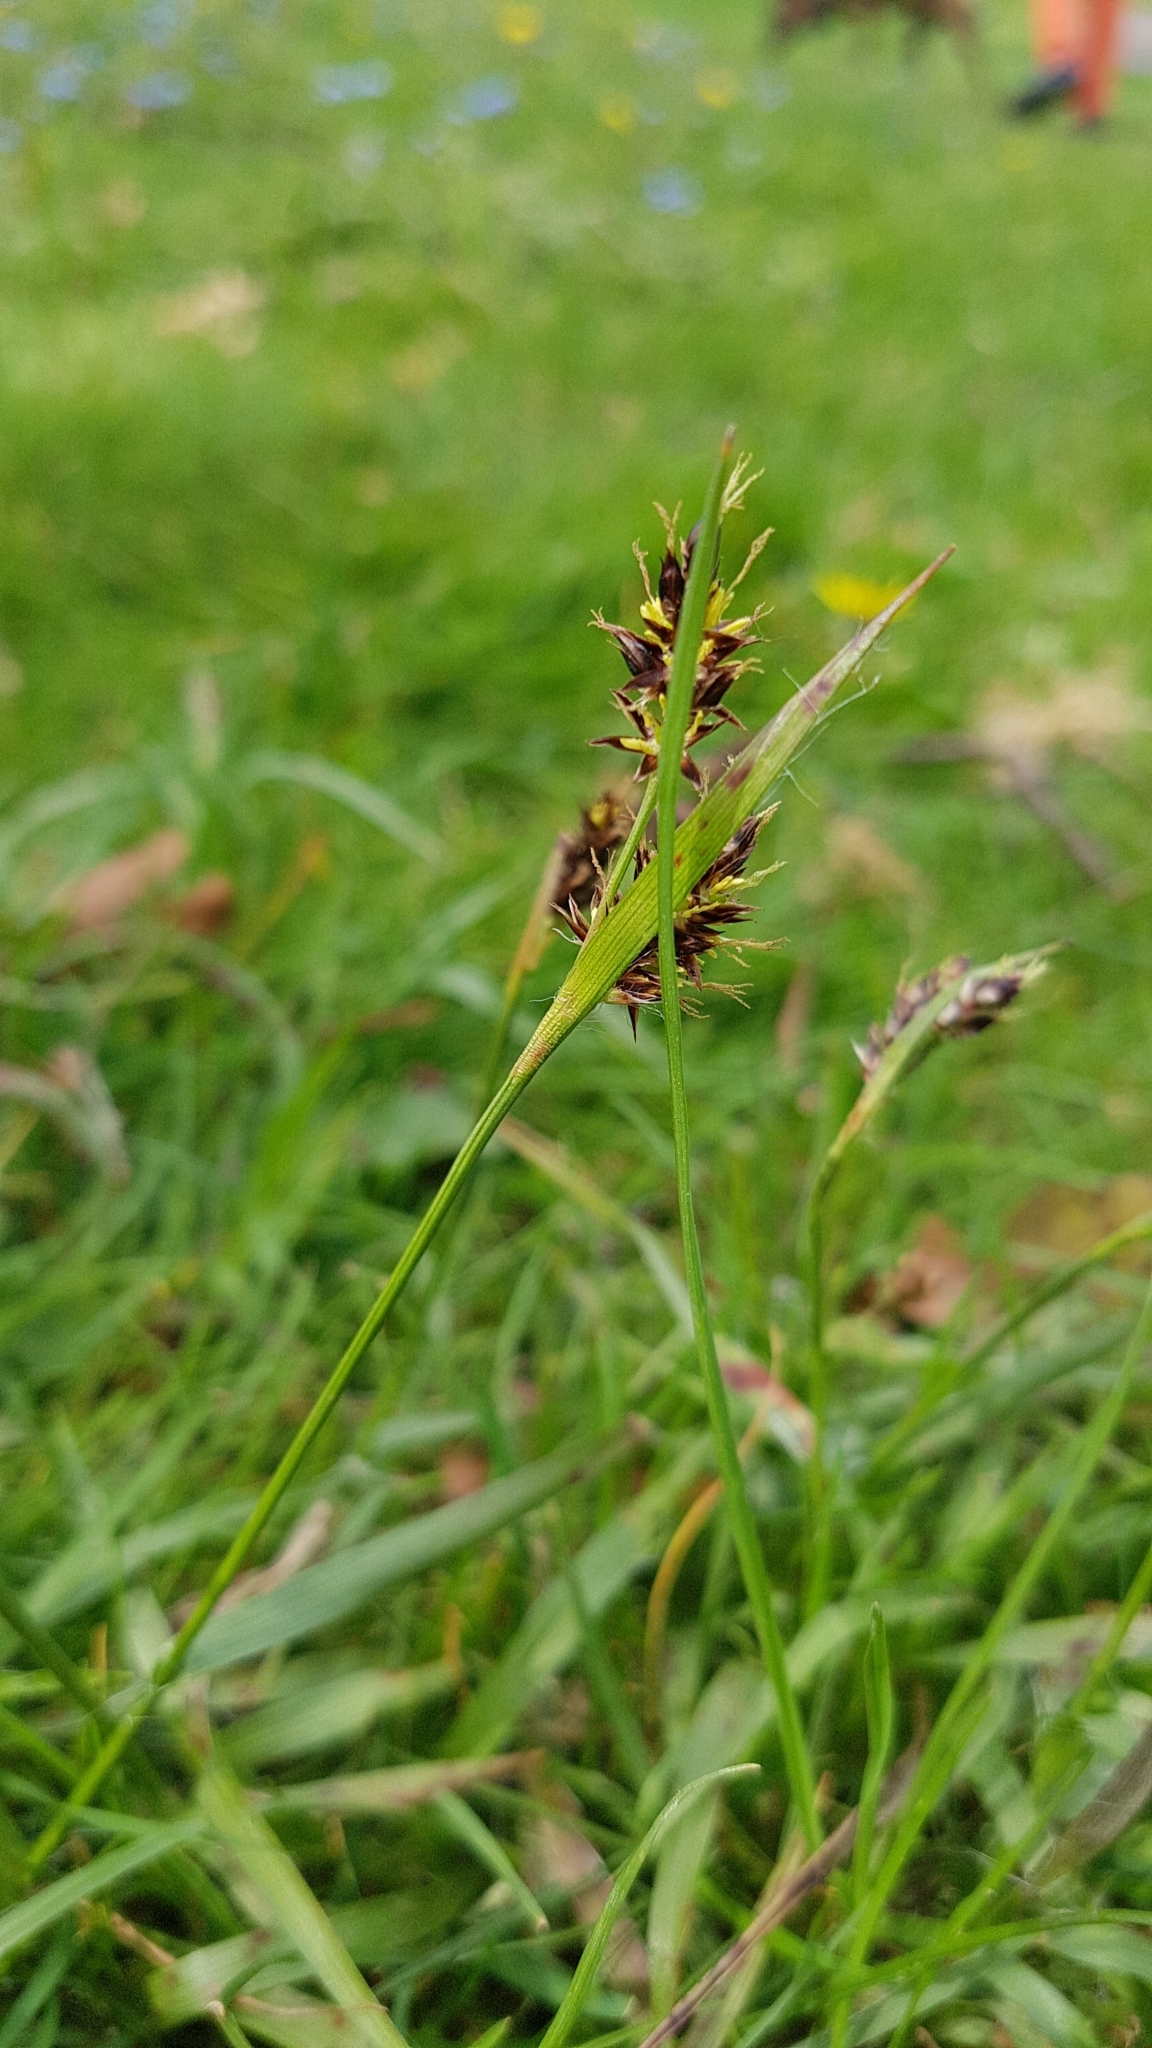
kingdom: Plantae
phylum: Tracheophyta
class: Liliopsida
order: Poales
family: Juncaceae
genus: Luzula
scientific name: Luzula campestris
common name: Field wood-rush
